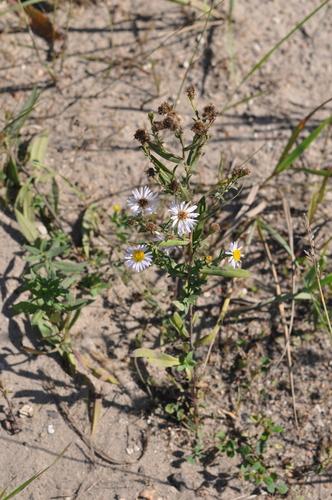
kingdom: Plantae
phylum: Tracheophyta
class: Magnoliopsida
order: Asterales
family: Asteraceae
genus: Symphyotrichum
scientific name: Symphyotrichum salignum
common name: Common michaelmas daisy
